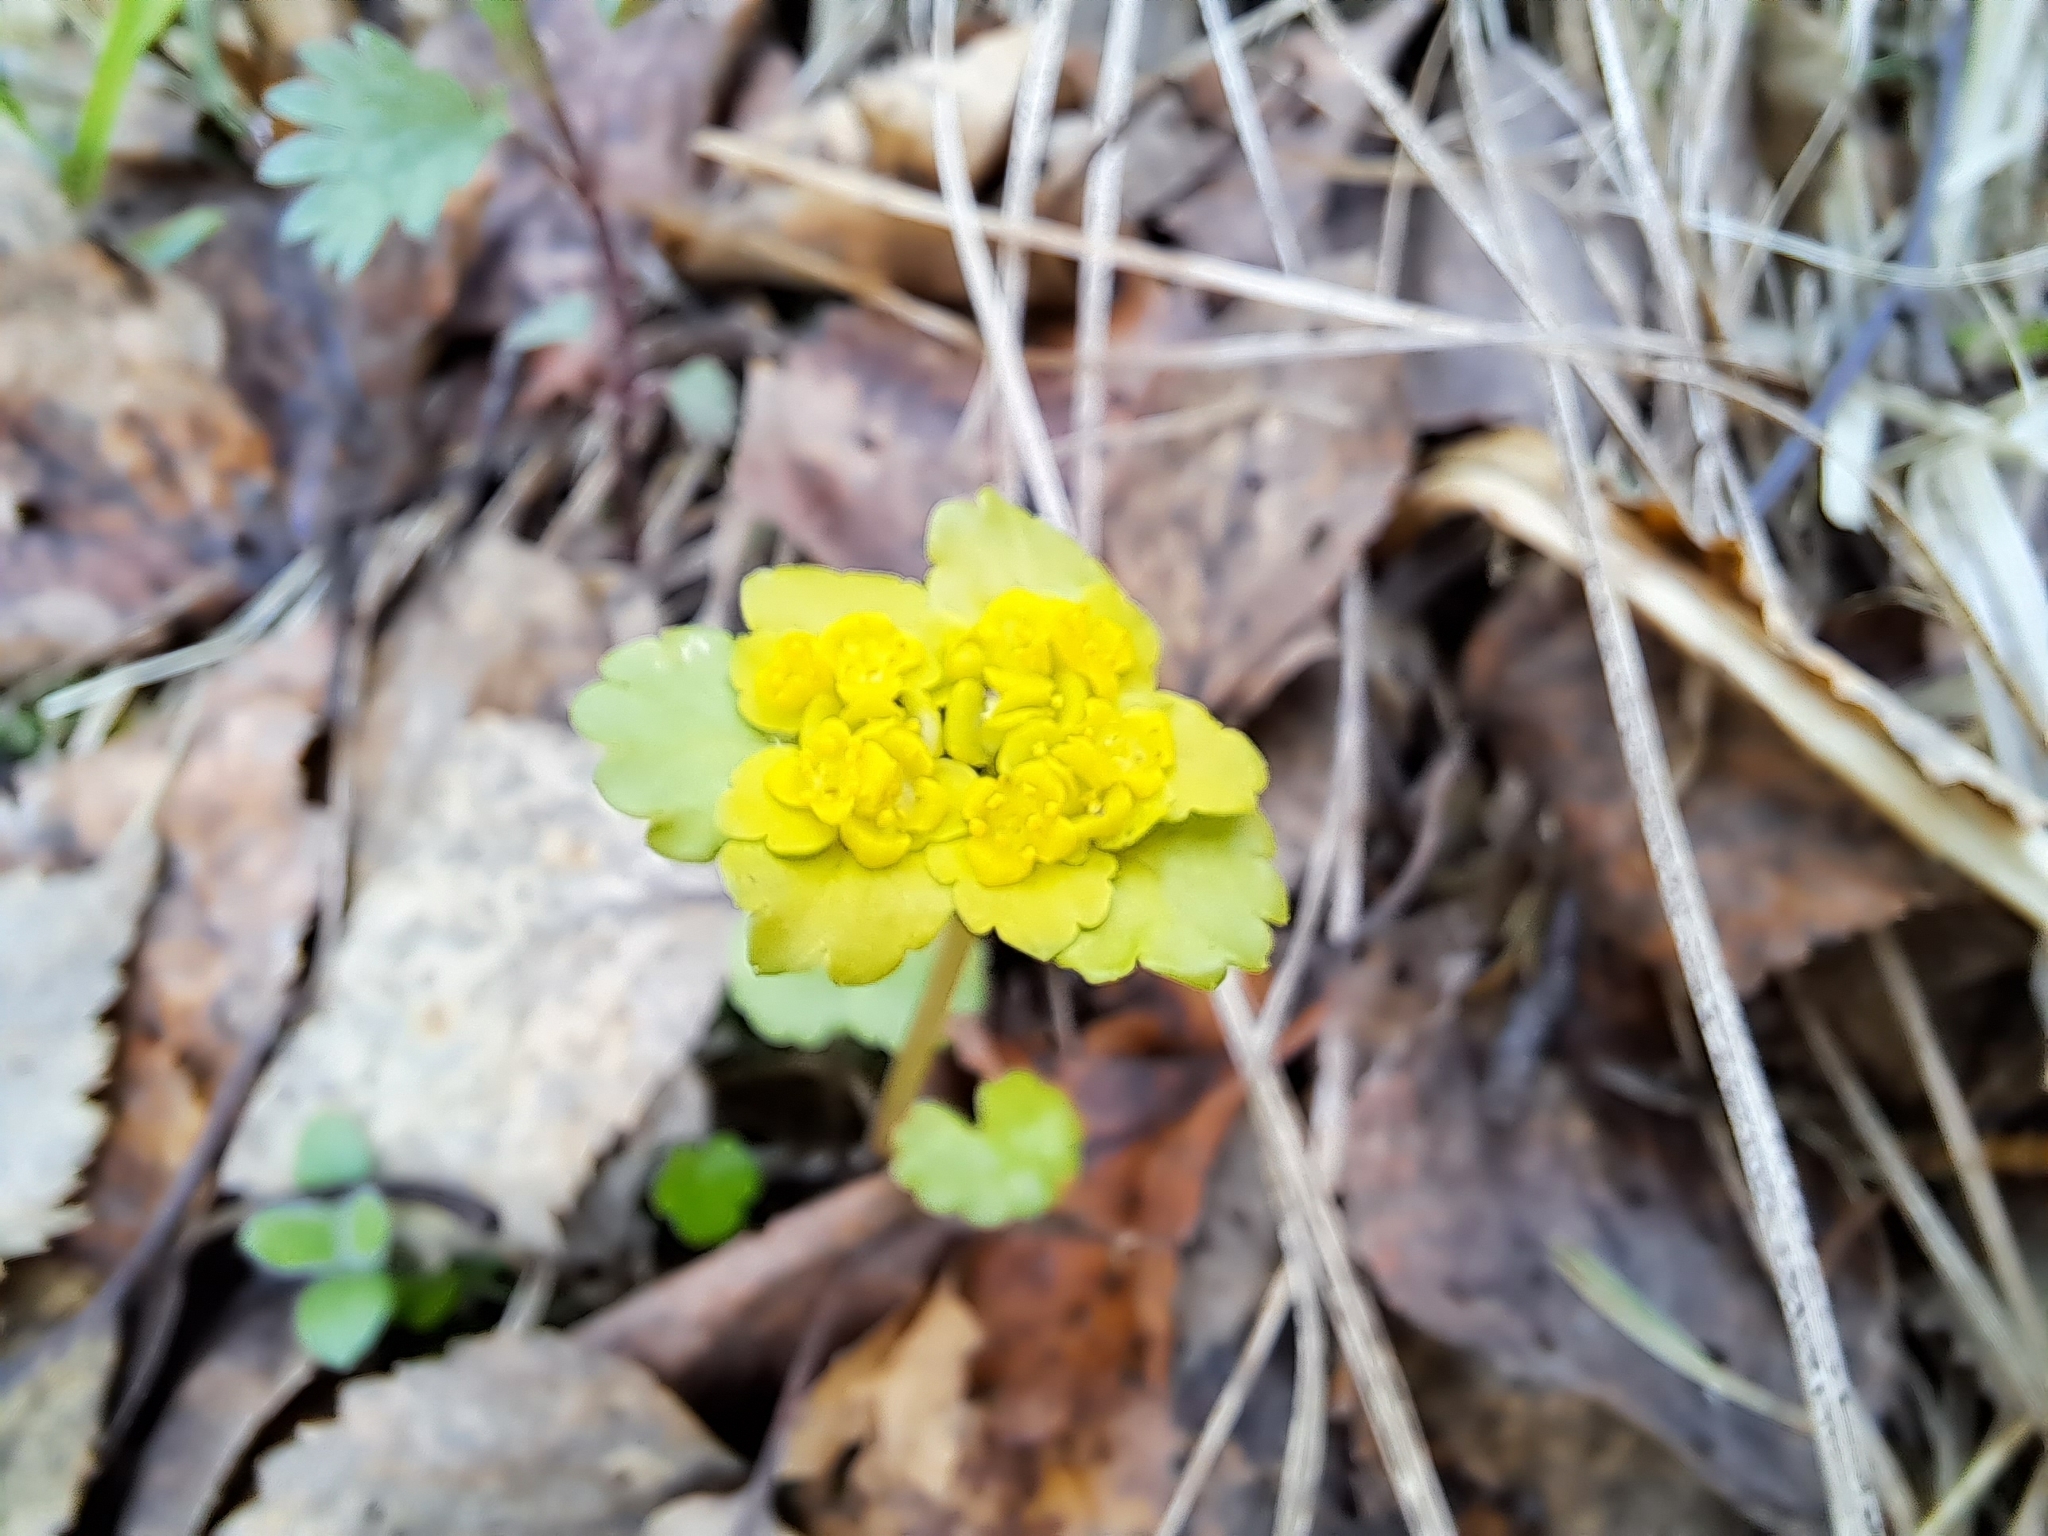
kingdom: Plantae
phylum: Tracheophyta
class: Magnoliopsida
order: Saxifragales
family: Saxifragaceae
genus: Chrysosplenium
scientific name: Chrysosplenium alternifolium
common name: Alternate-leaved golden-saxifrage
